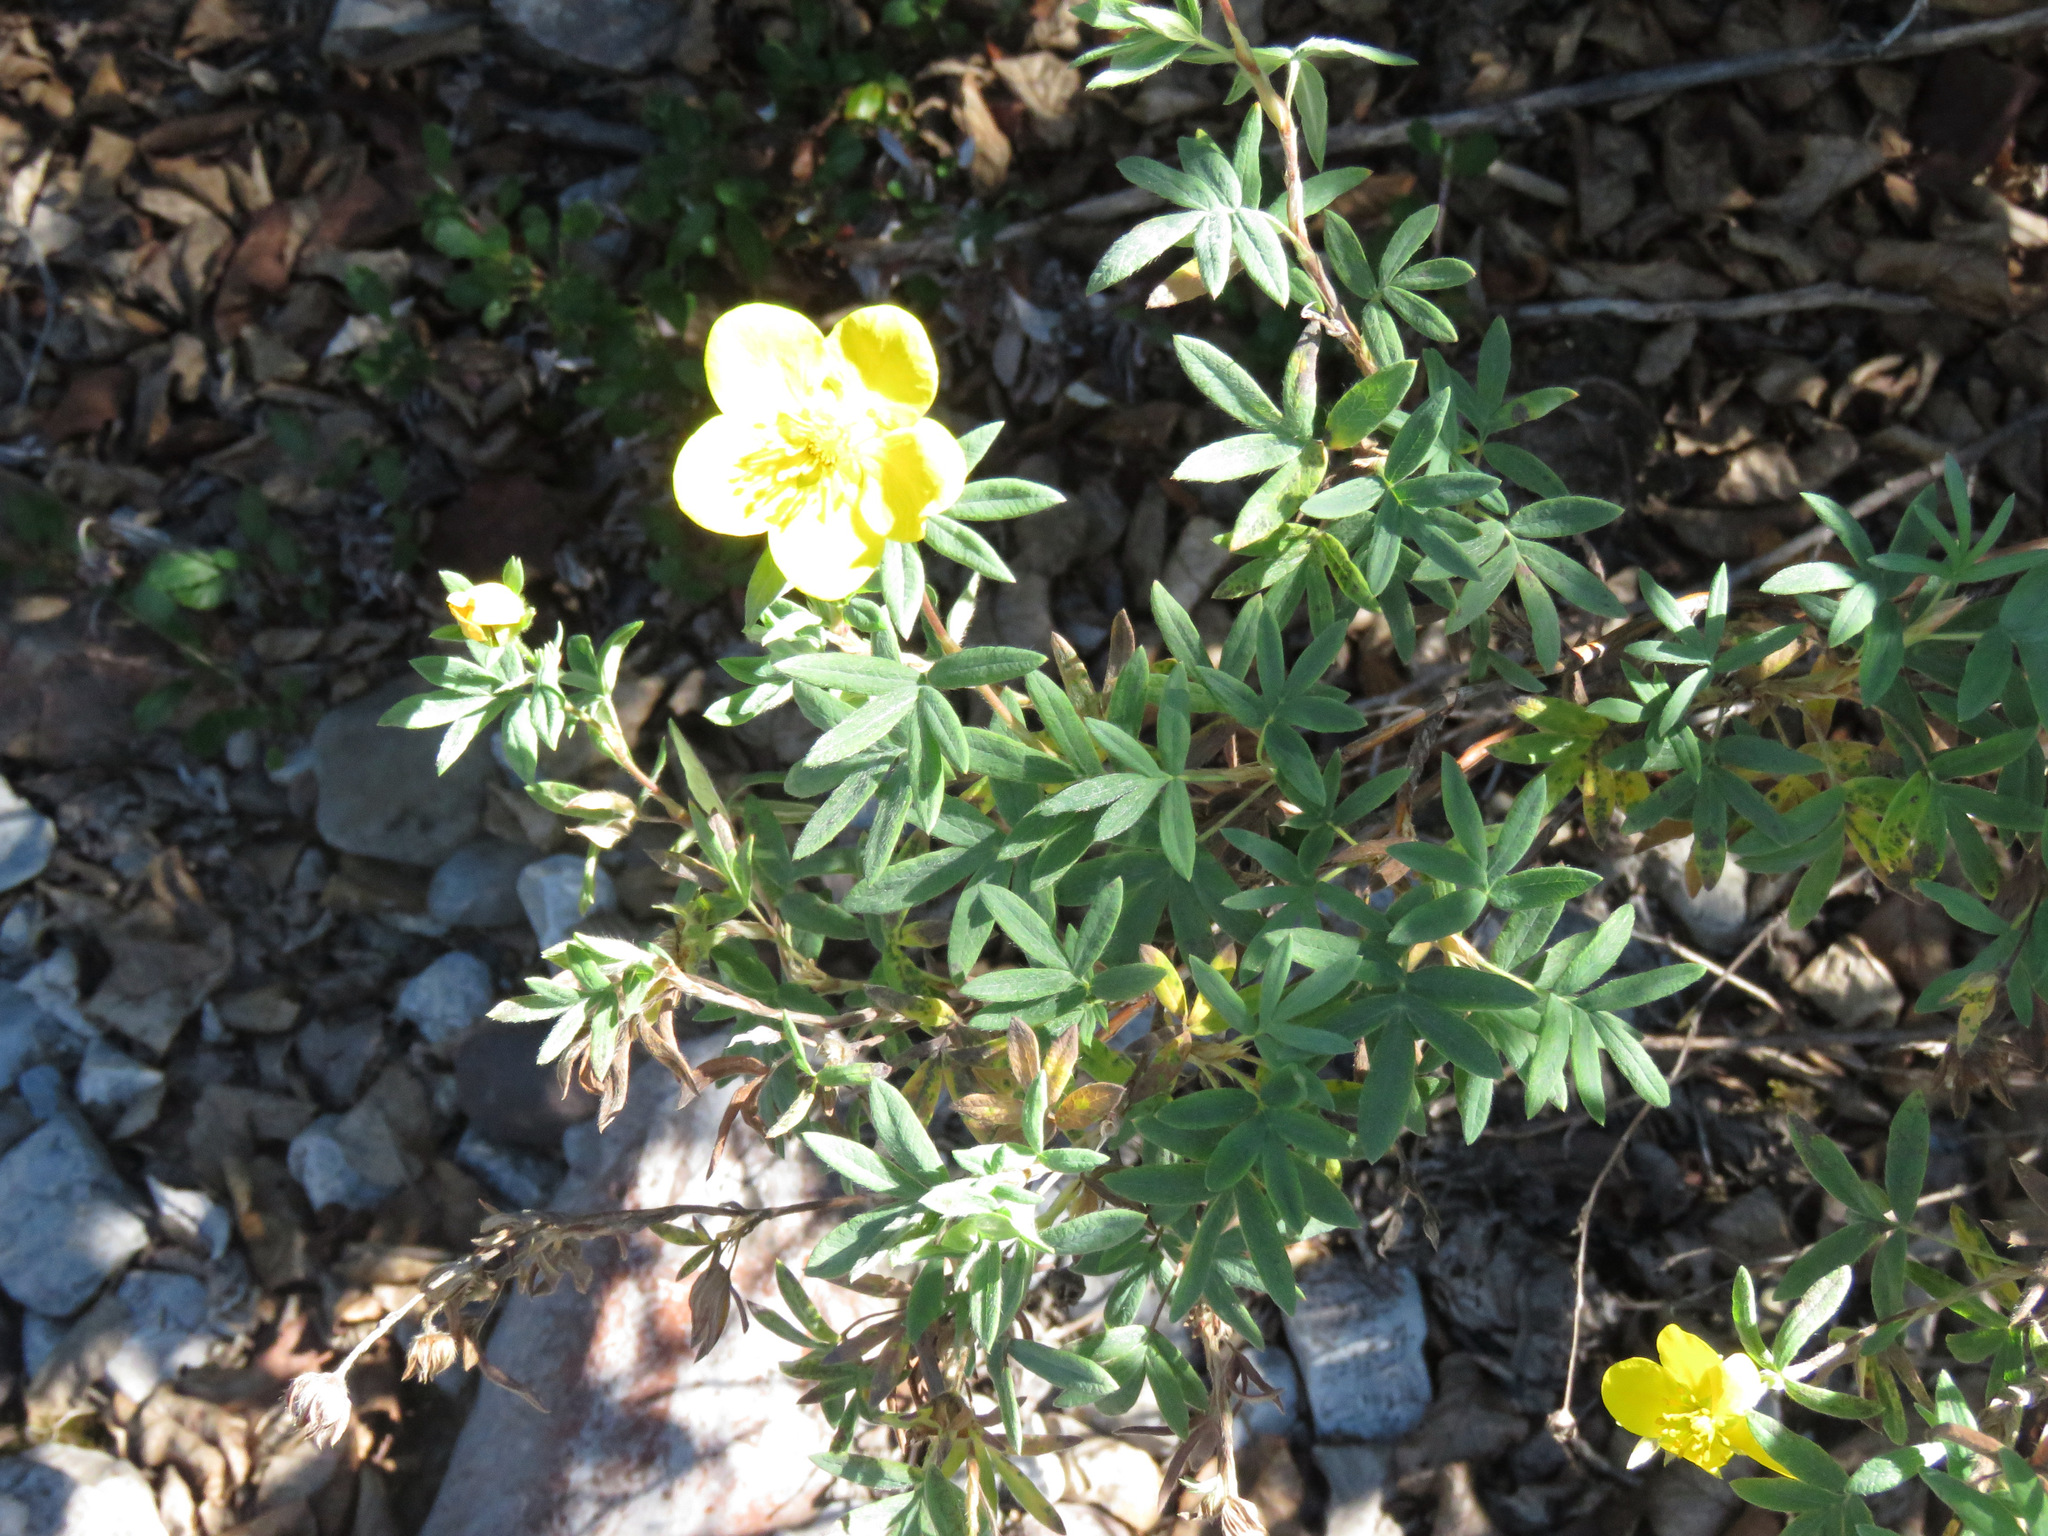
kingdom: Plantae
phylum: Tracheophyta
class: Magnoliopsida
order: Rosales
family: Rosaceae
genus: Dasiphora
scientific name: Dasiphora fruticosa
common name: Shrubby cinquefoil
